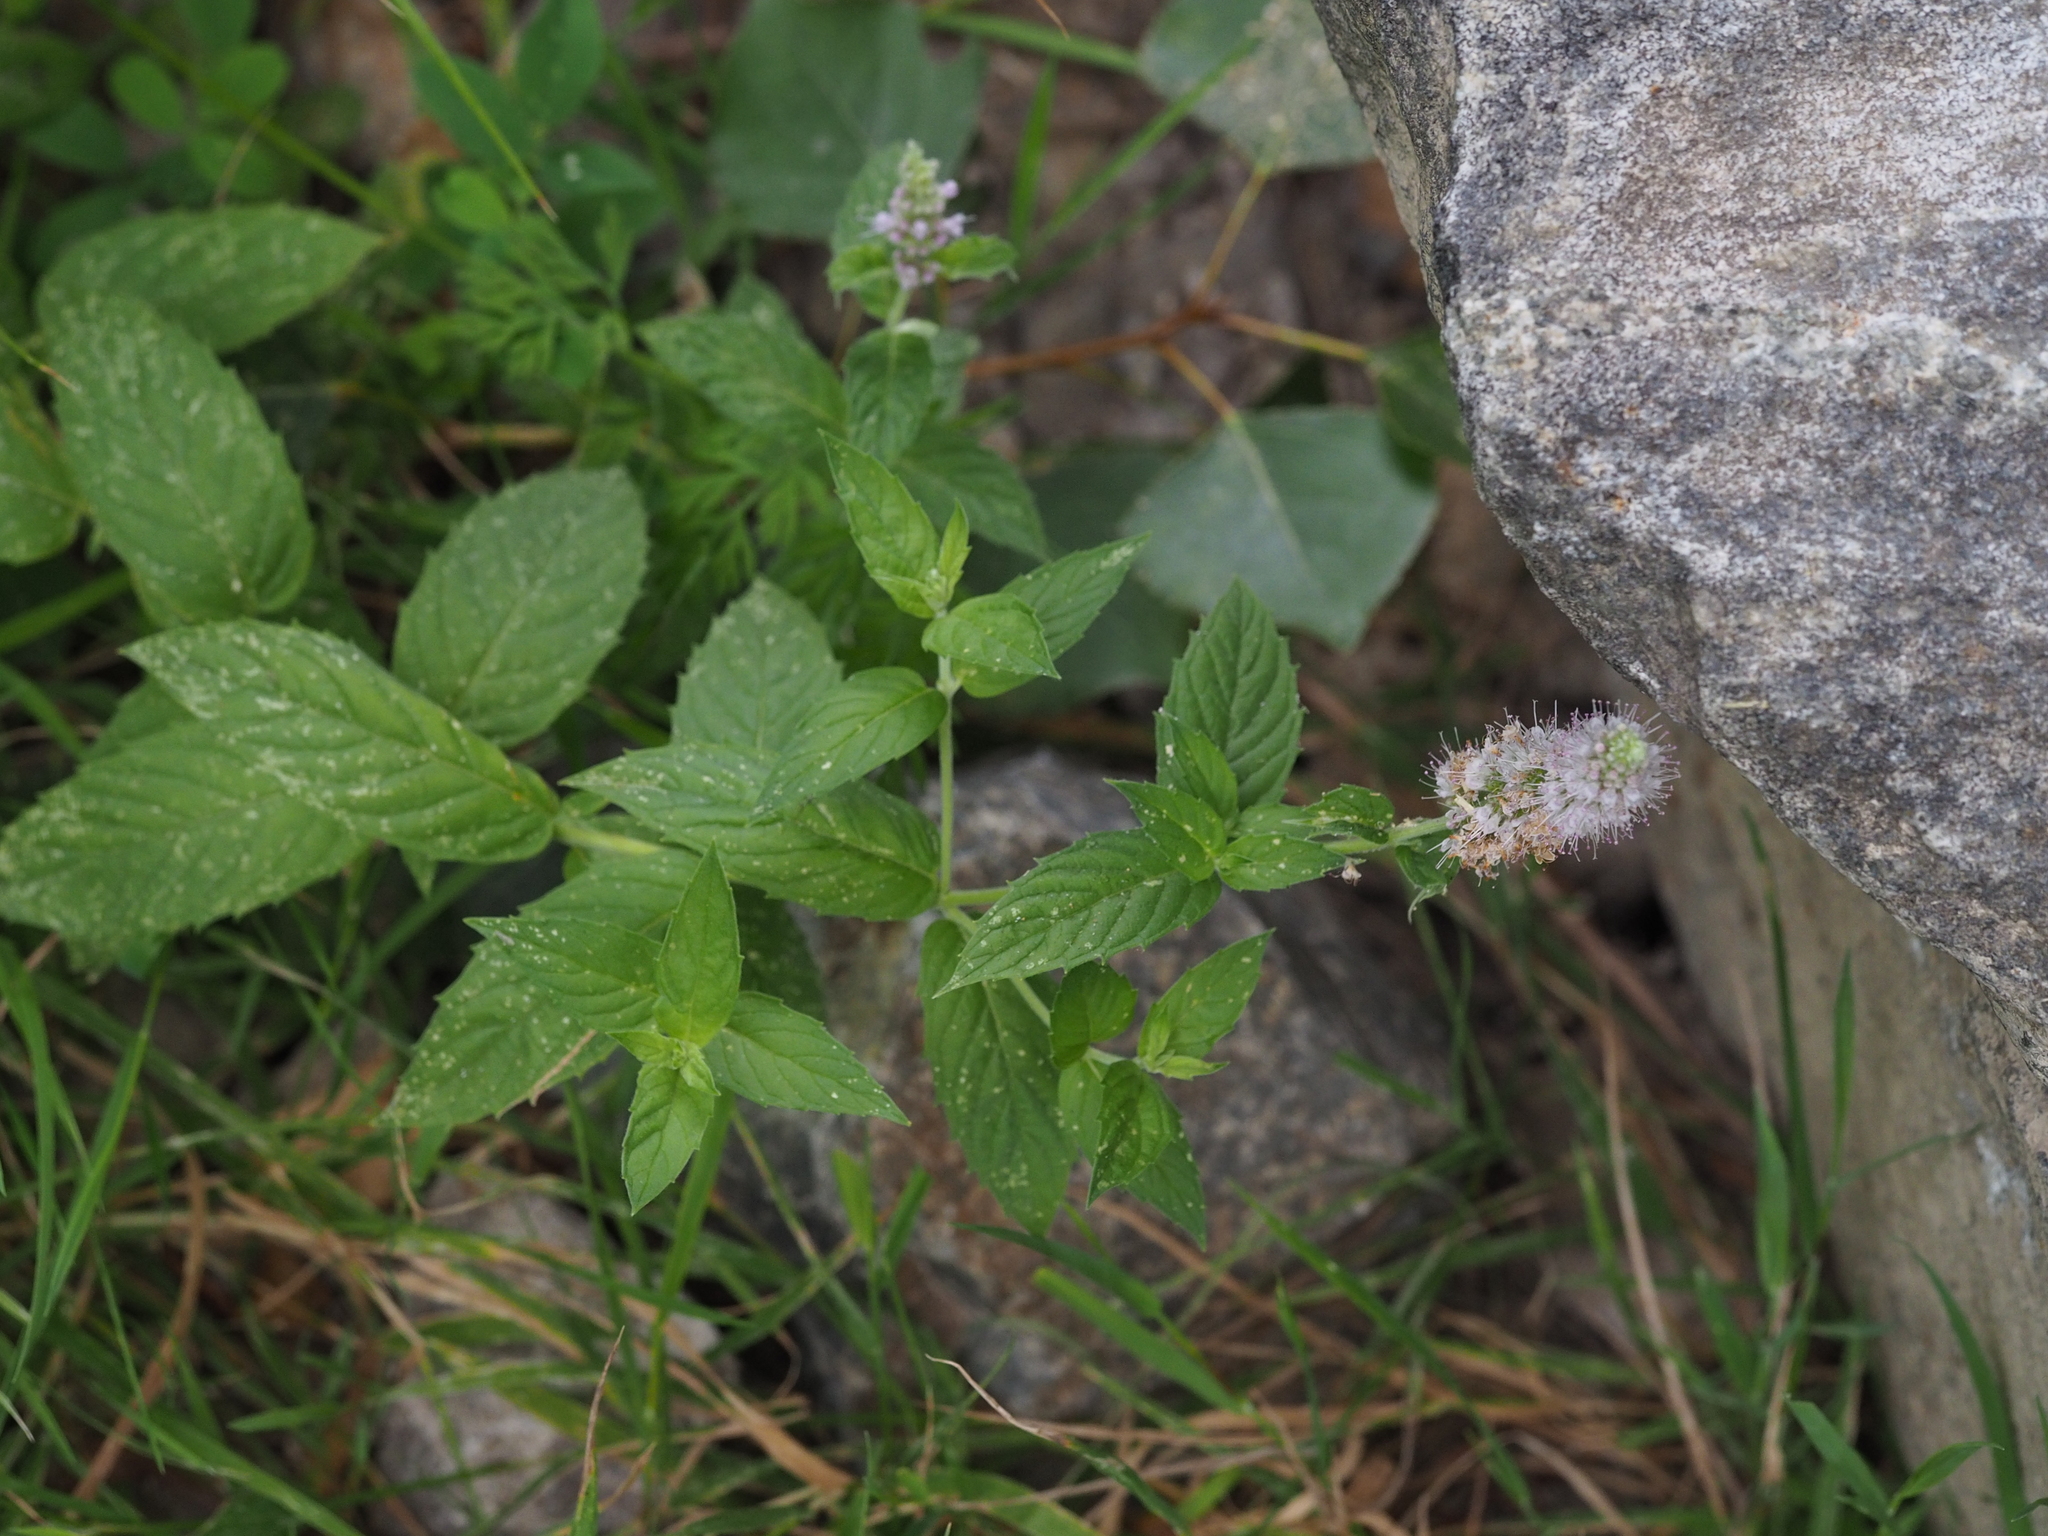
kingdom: Plantae
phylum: Tracheophyta
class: Magnoliopsida
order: Lamiales
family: Lamiaceae
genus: Mentha
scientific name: Mentha longifolia
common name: Horse mint
